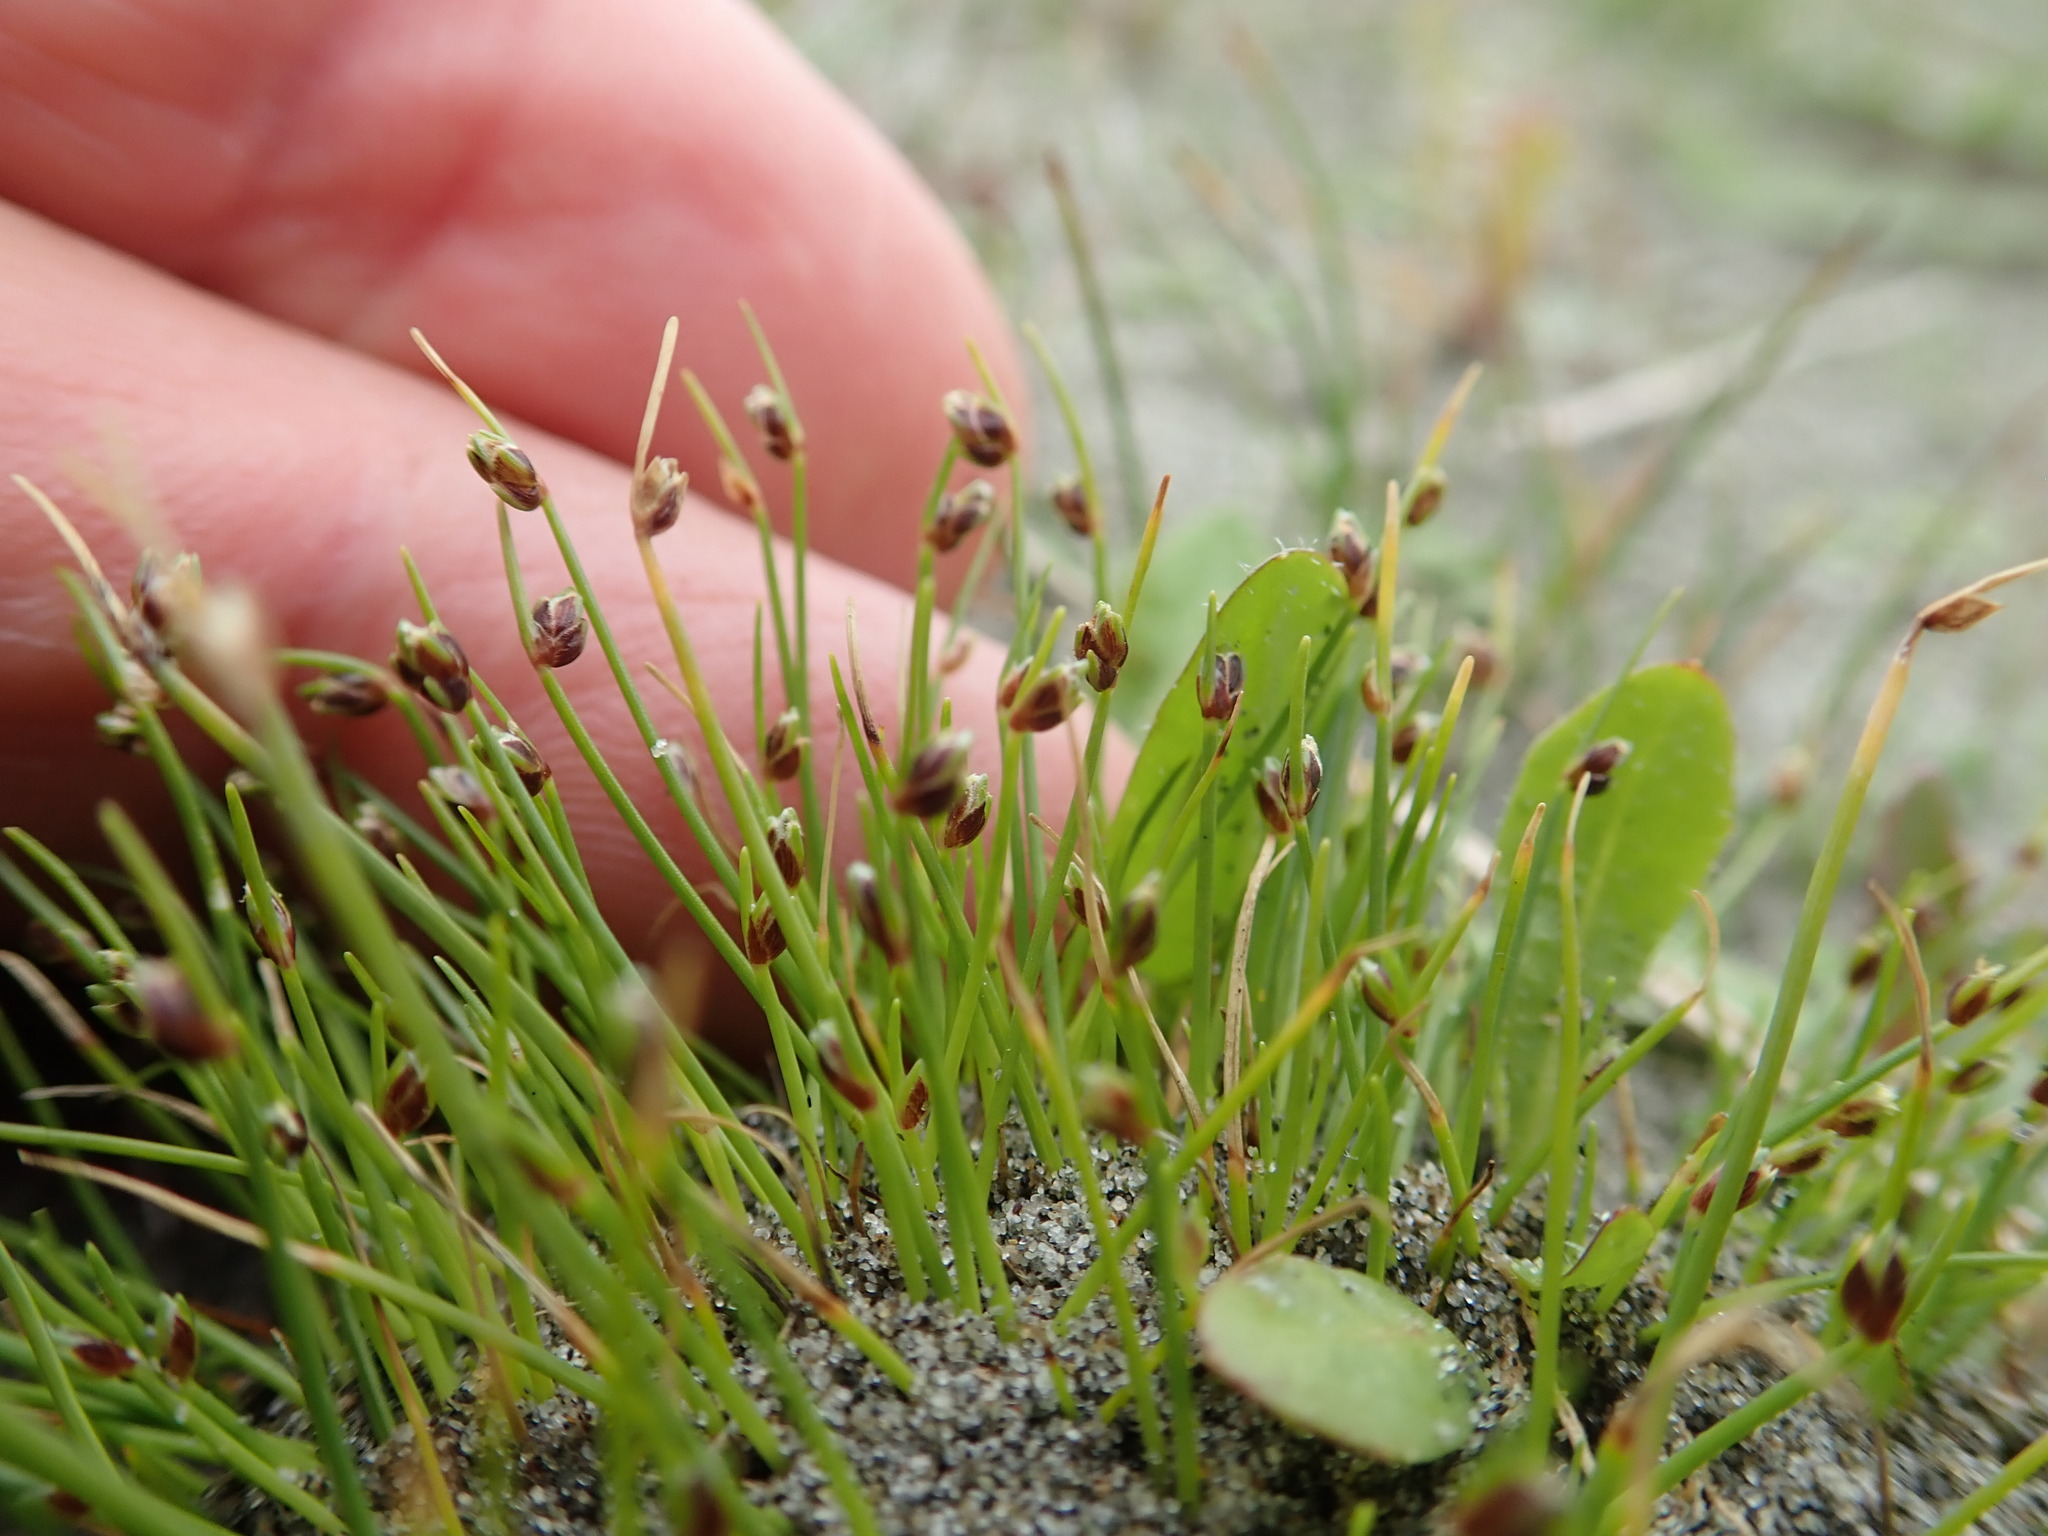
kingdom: Plantae
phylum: Tracheophyta
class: Liliopsida
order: Poales
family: Cyperaceae
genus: Isolepis
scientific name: Isolepis cernua
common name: Slender club-rush
